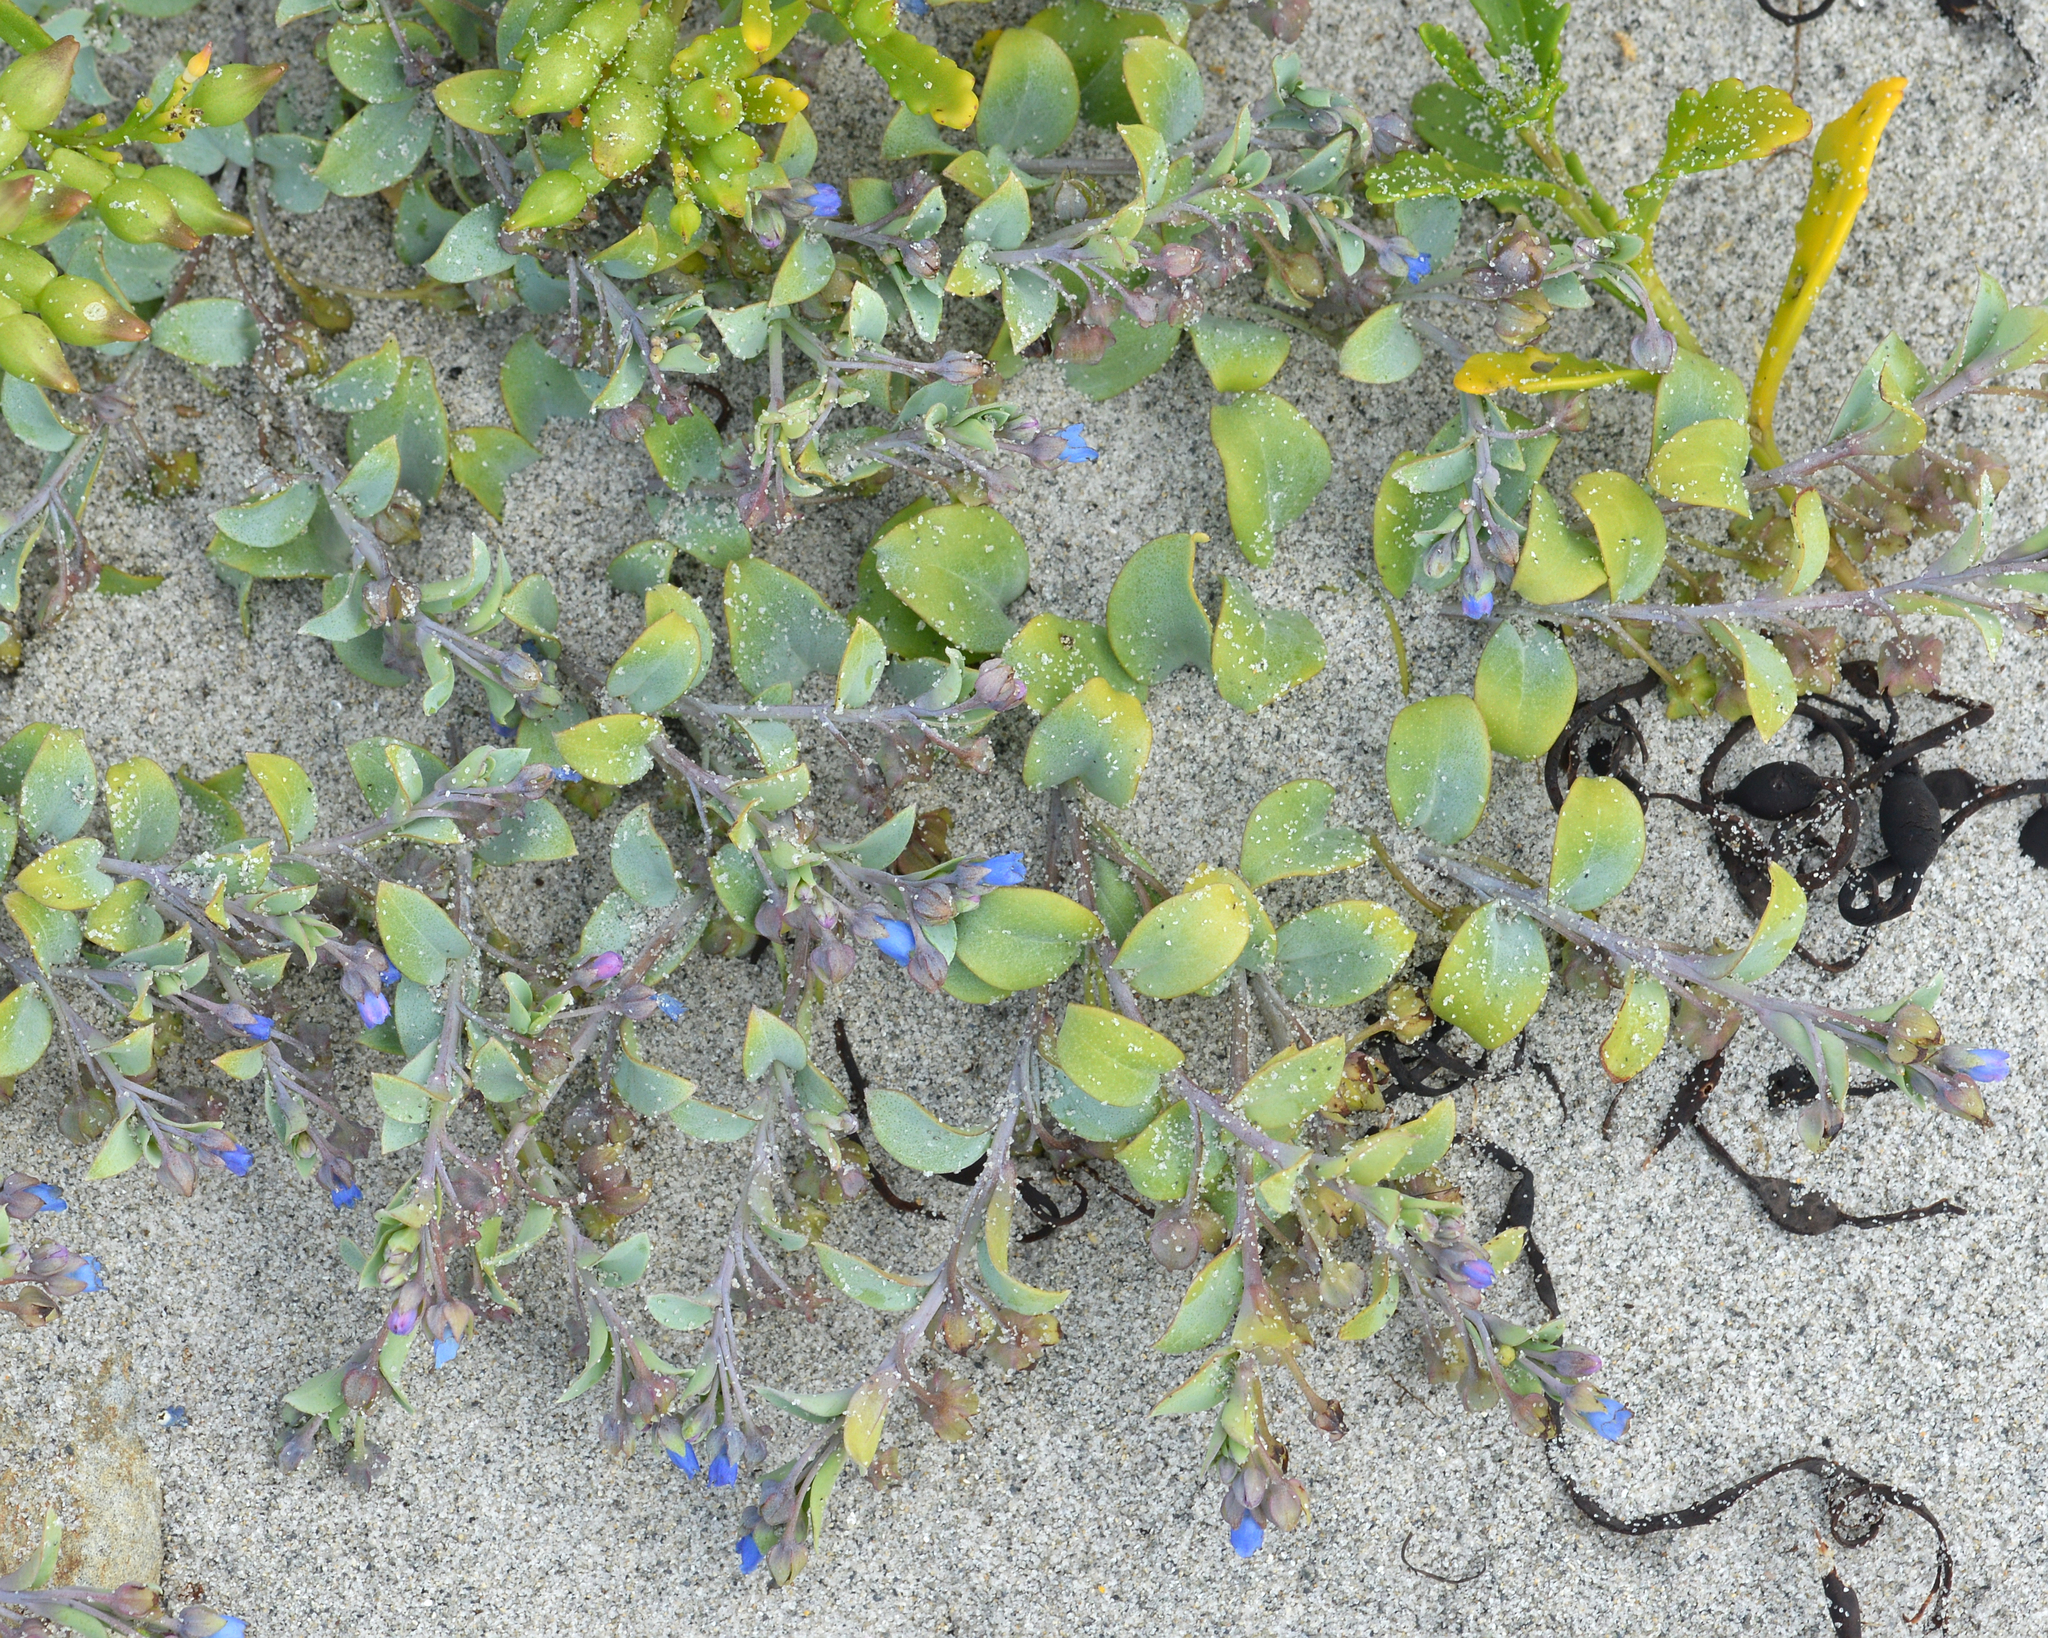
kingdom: Plantae
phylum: Tracheophyta
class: Magnoliopsida
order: Boraginales
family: Boraginaceae
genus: Mertensia
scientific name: Mertensia maritima
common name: Oysterplant
